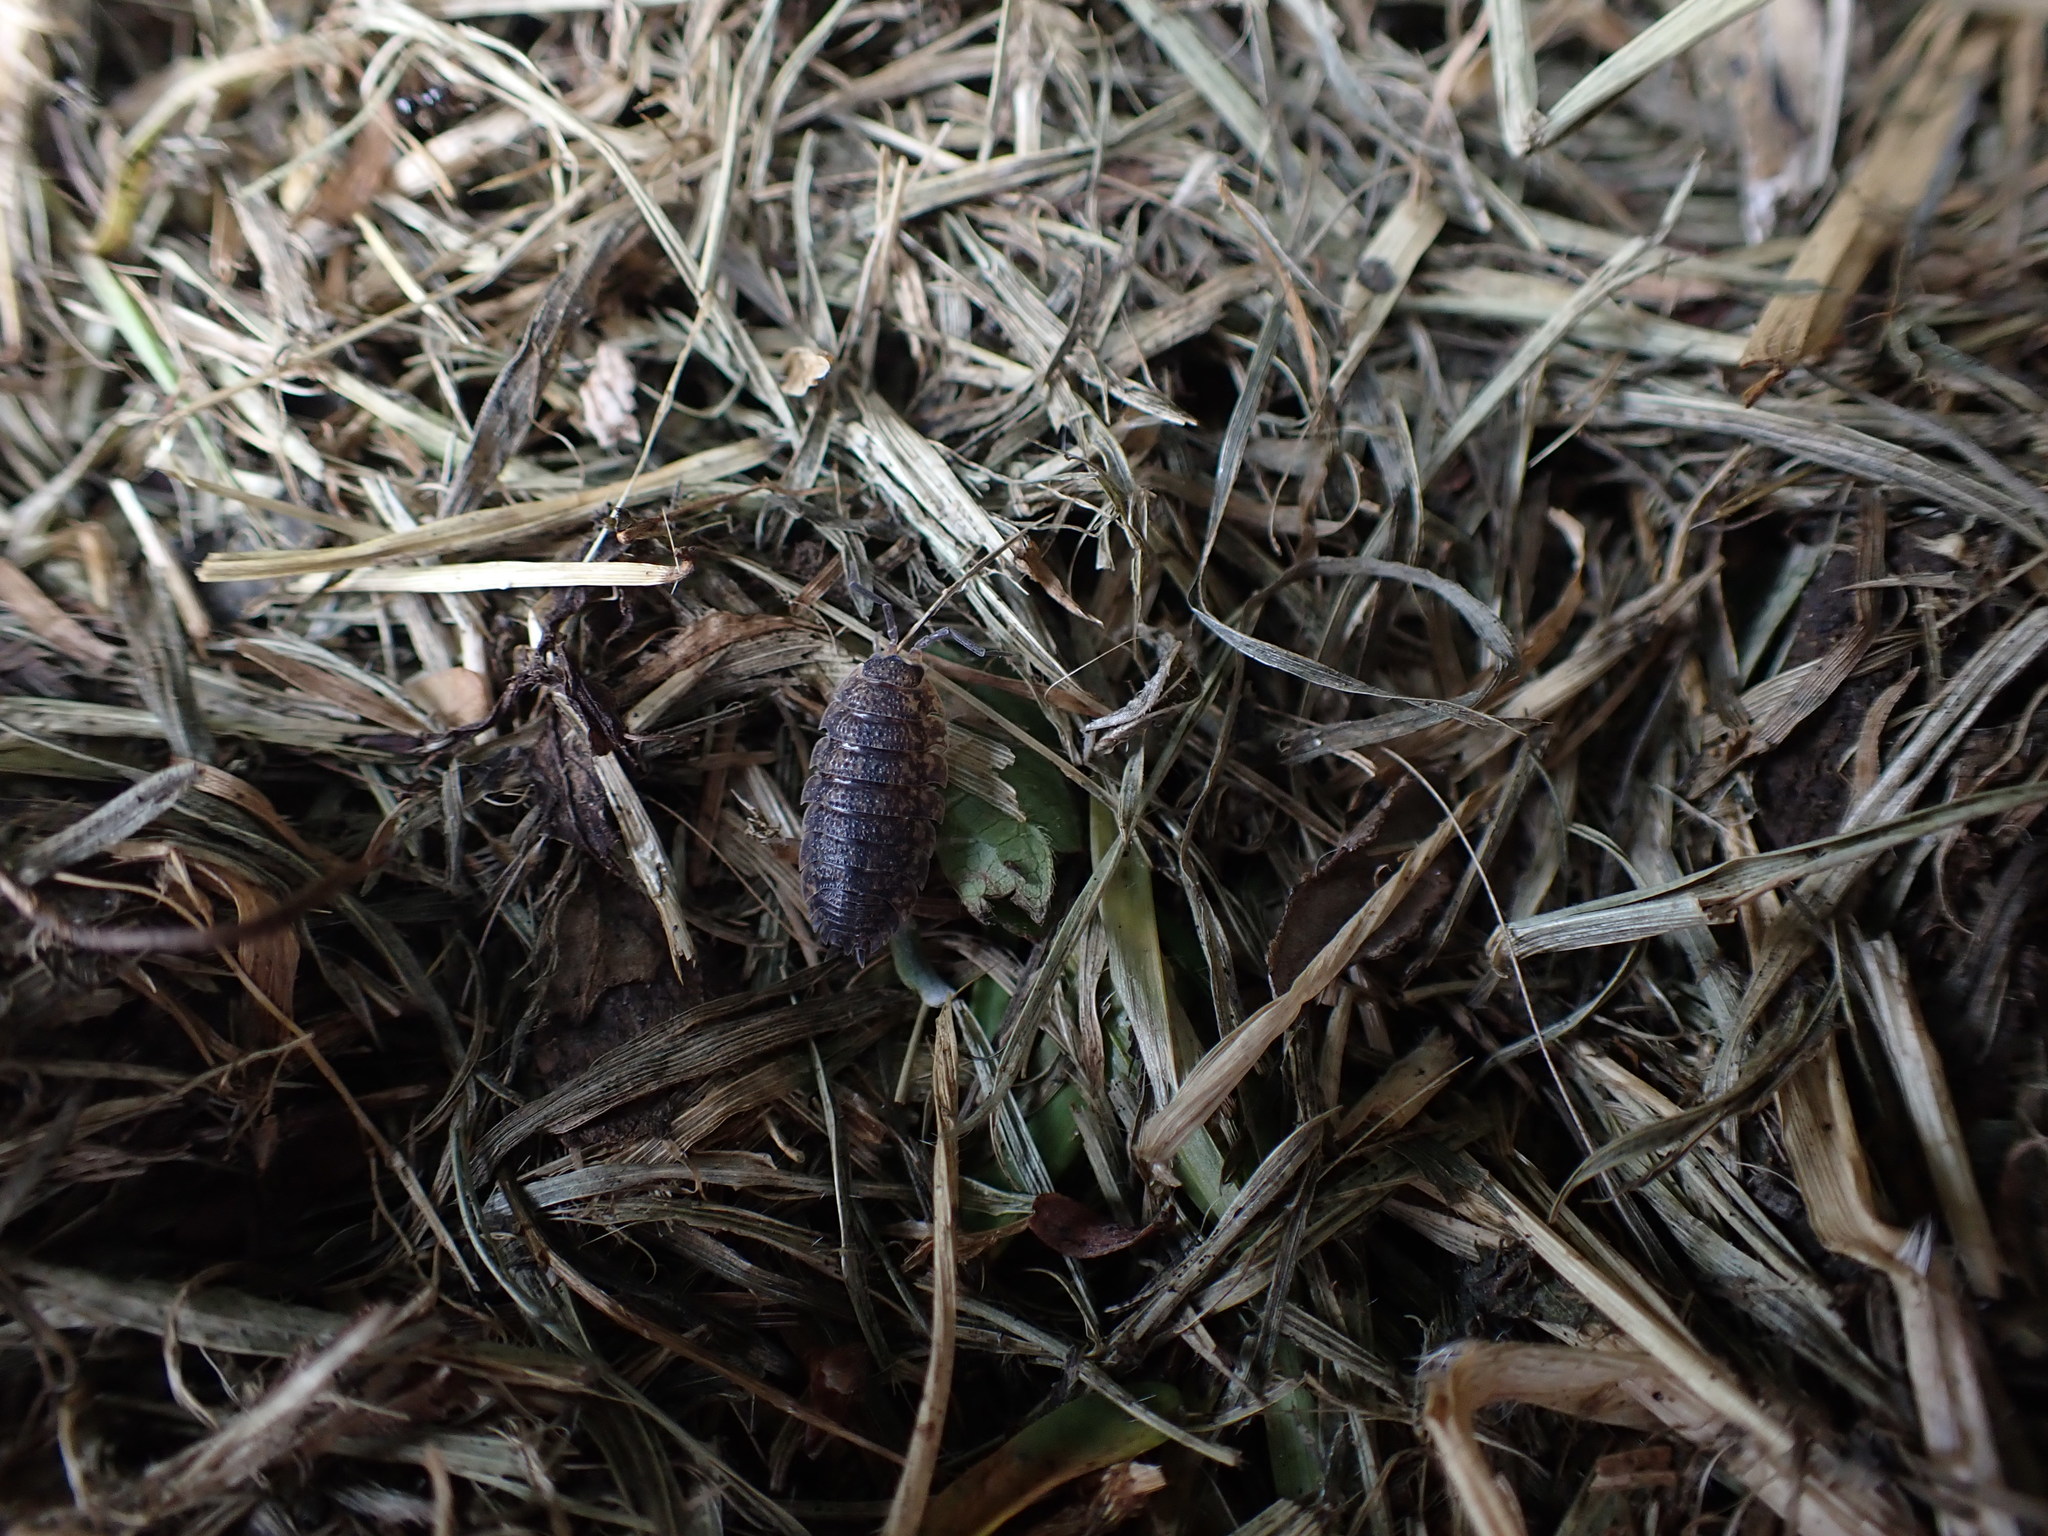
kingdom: Animalia
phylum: Arthropoda
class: Malacostraca
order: Isopoda
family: Porcellionidae
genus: Porcellio
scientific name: Porcellio scaber
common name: Common rough woodlouse
